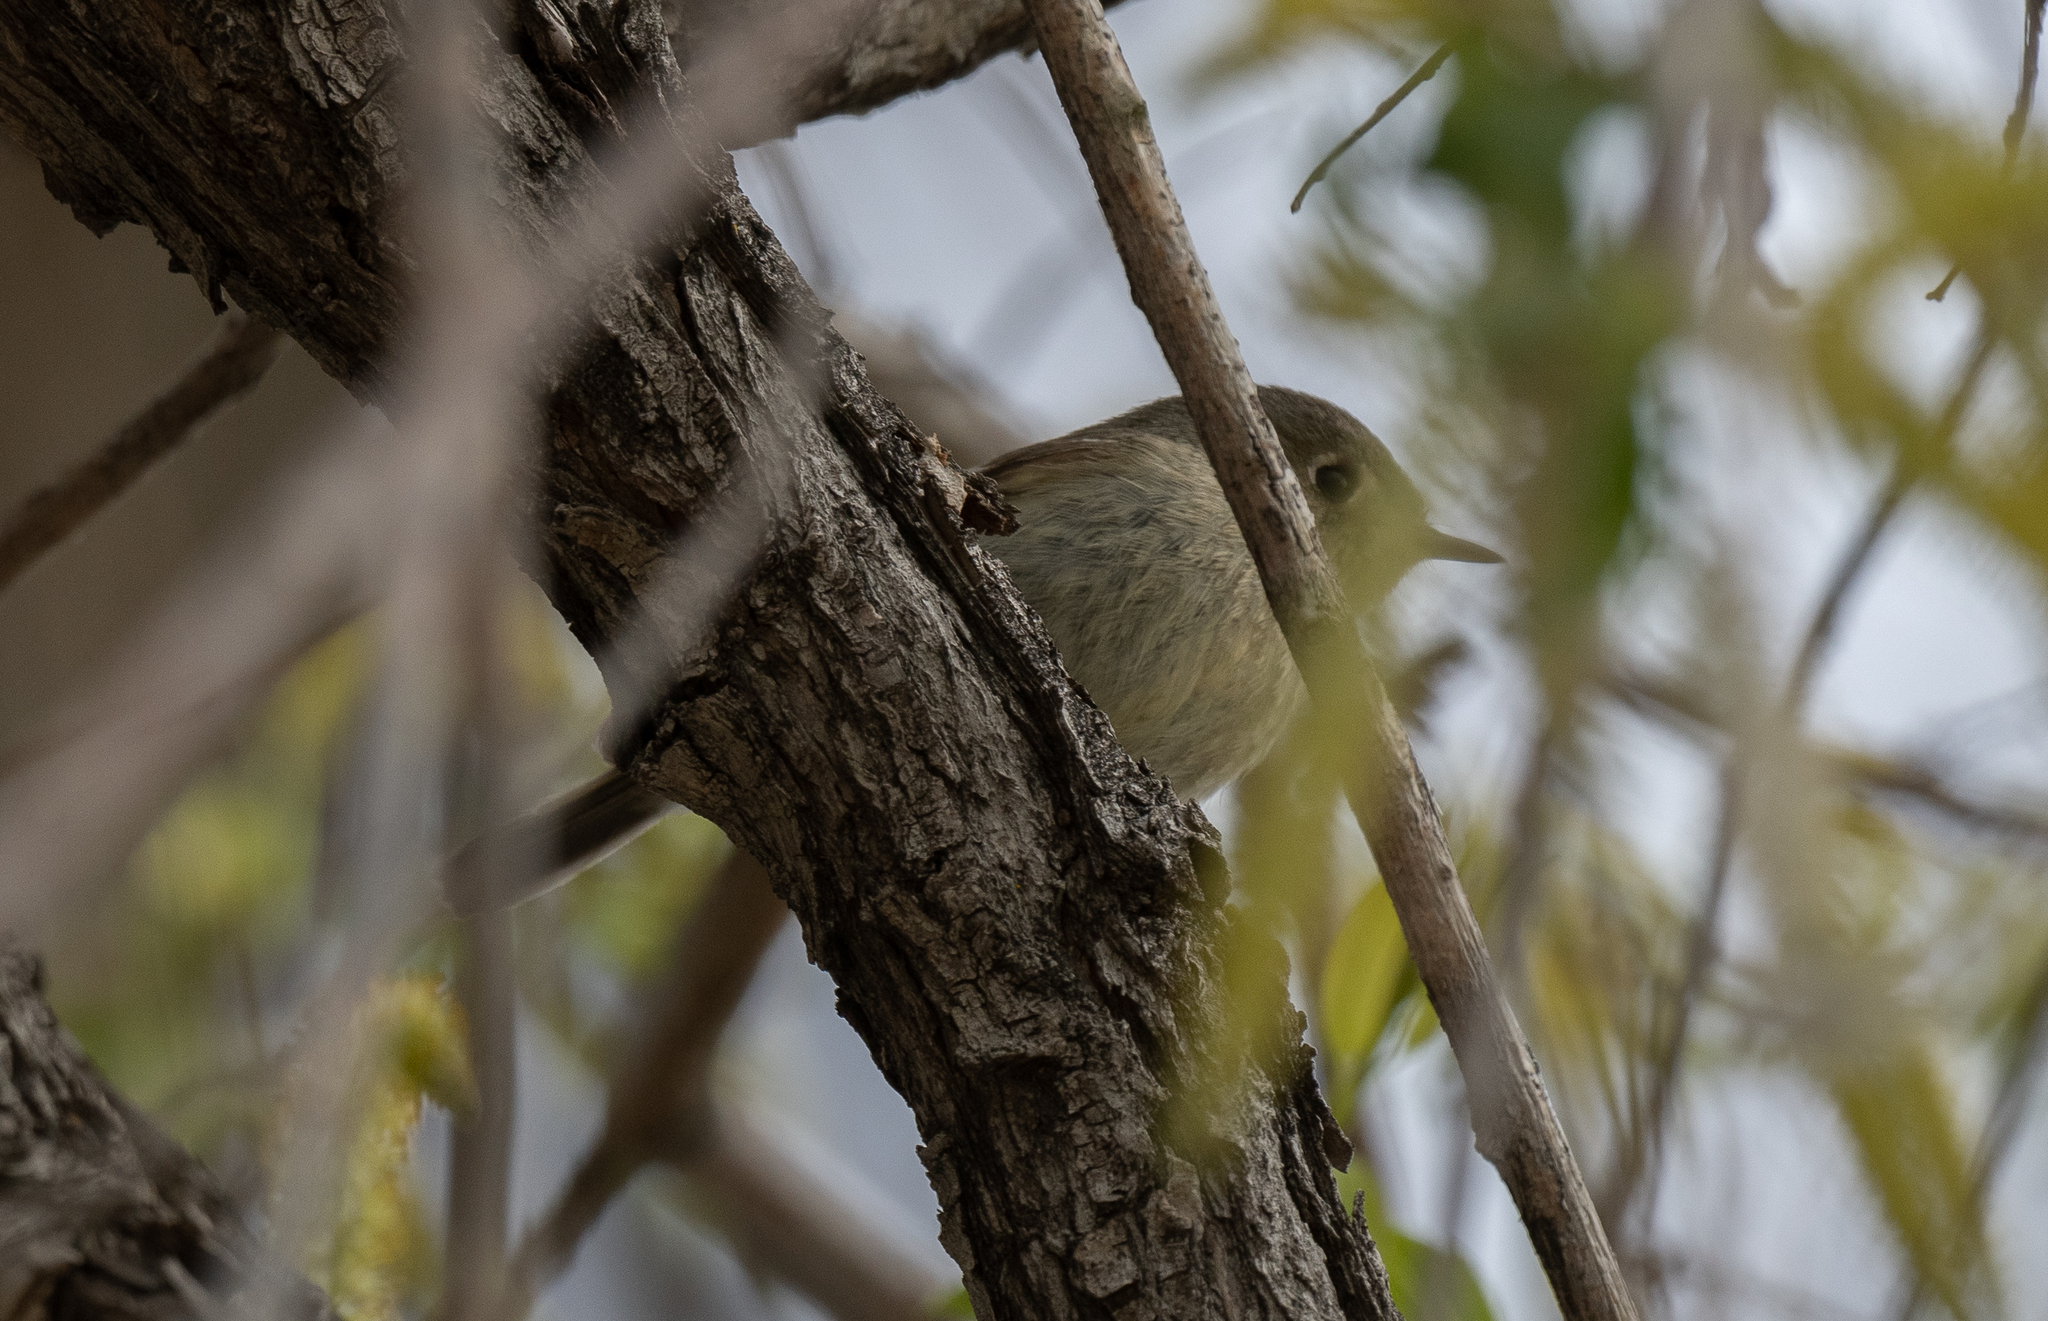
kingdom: Animalia
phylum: Chordata
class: Aves
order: Passeriformes
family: Regulidae
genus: Regulus
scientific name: Regulus calendula
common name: Ruby-crowned kinglet
